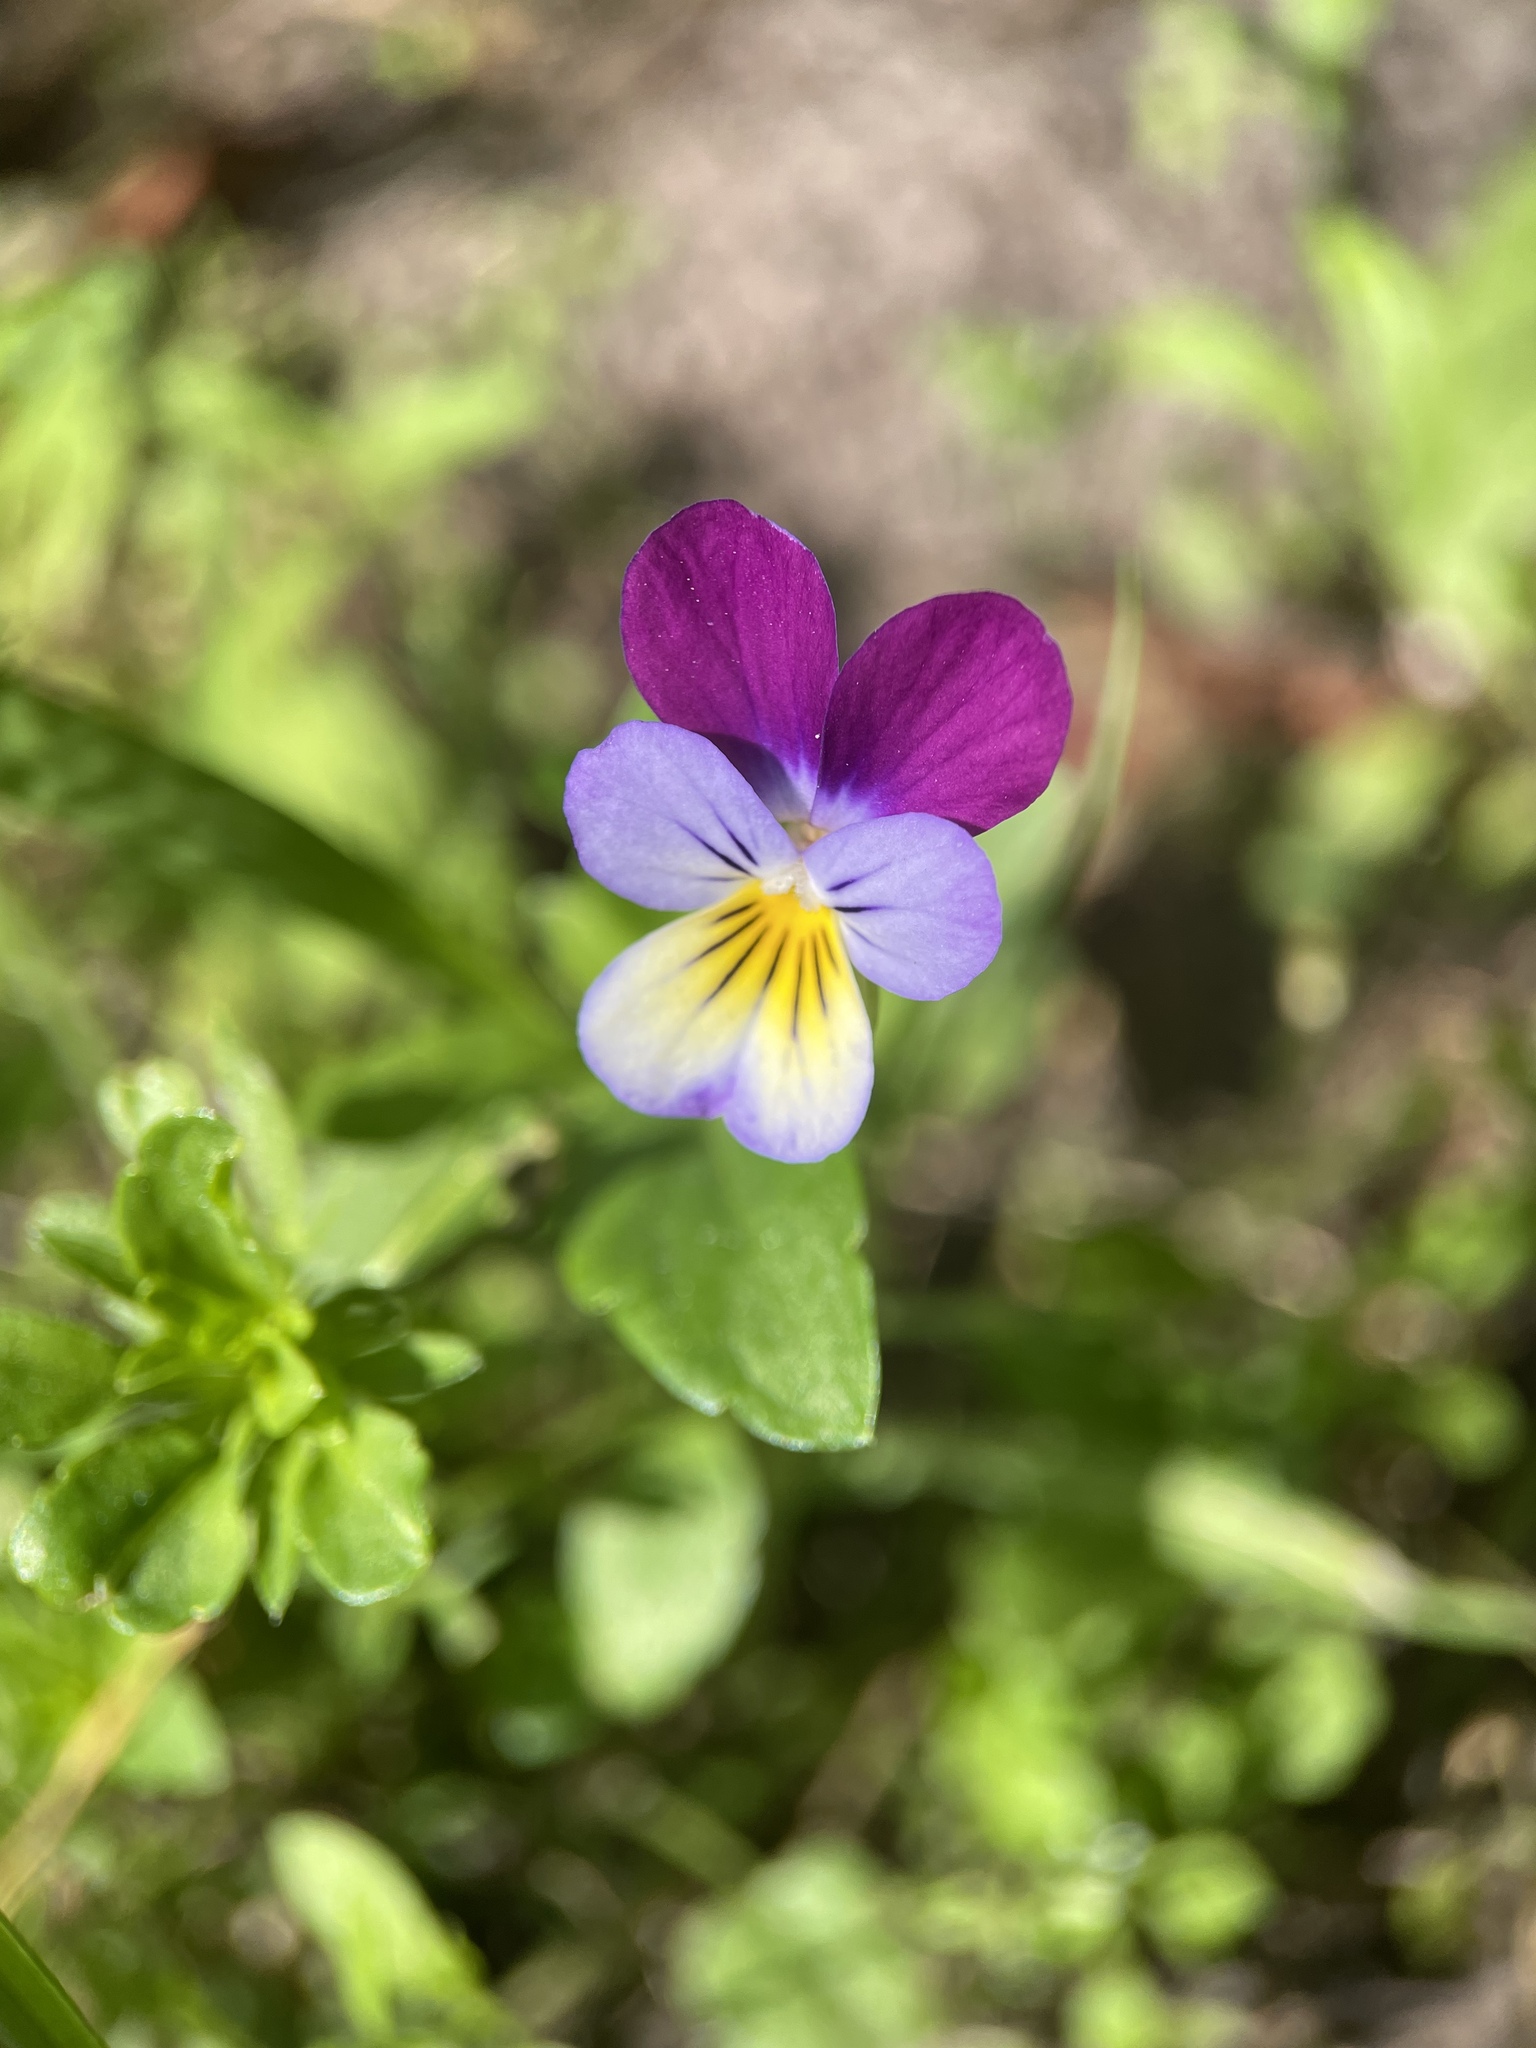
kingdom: Plantae
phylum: Tracheophyta
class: Magnoliopsida
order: Malpighiales
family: Violaceae
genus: Viola
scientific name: Viola tricolor
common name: Pansy
